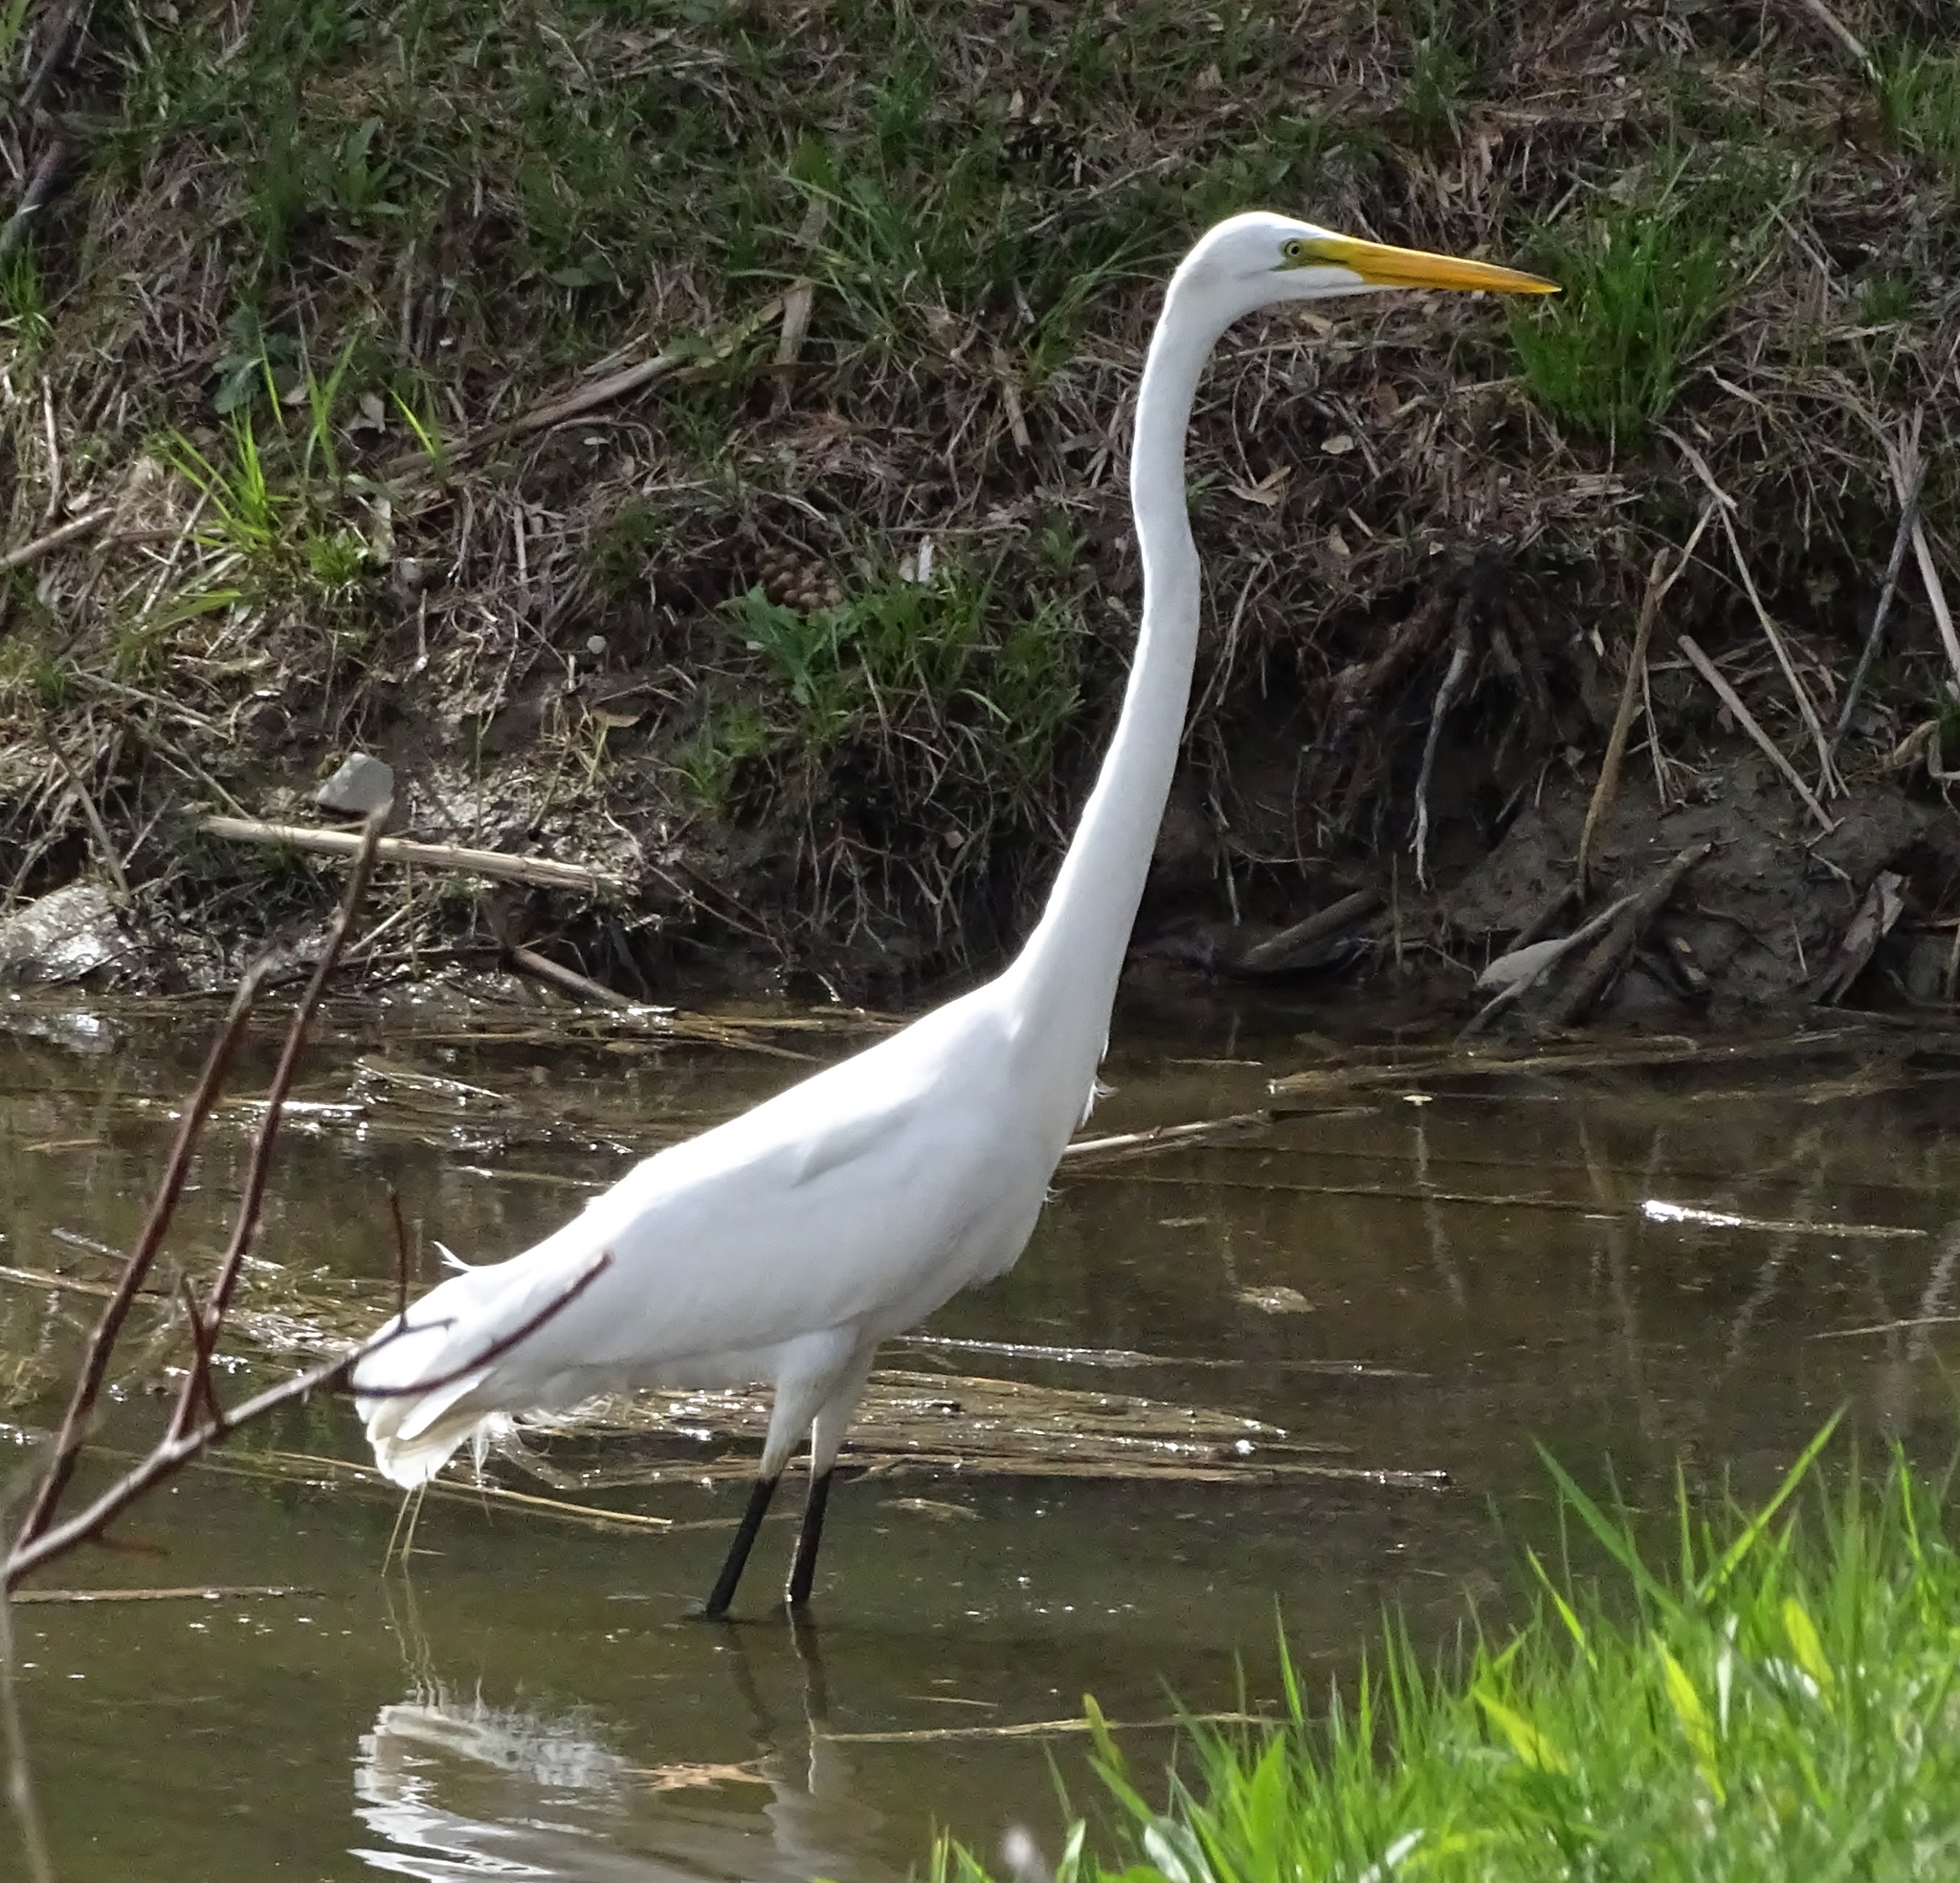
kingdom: Animalia
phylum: Chordata
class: Aves
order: Pelecaniformes
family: Ardeidae
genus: Ardea
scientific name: Ardea alba
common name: Great egret
